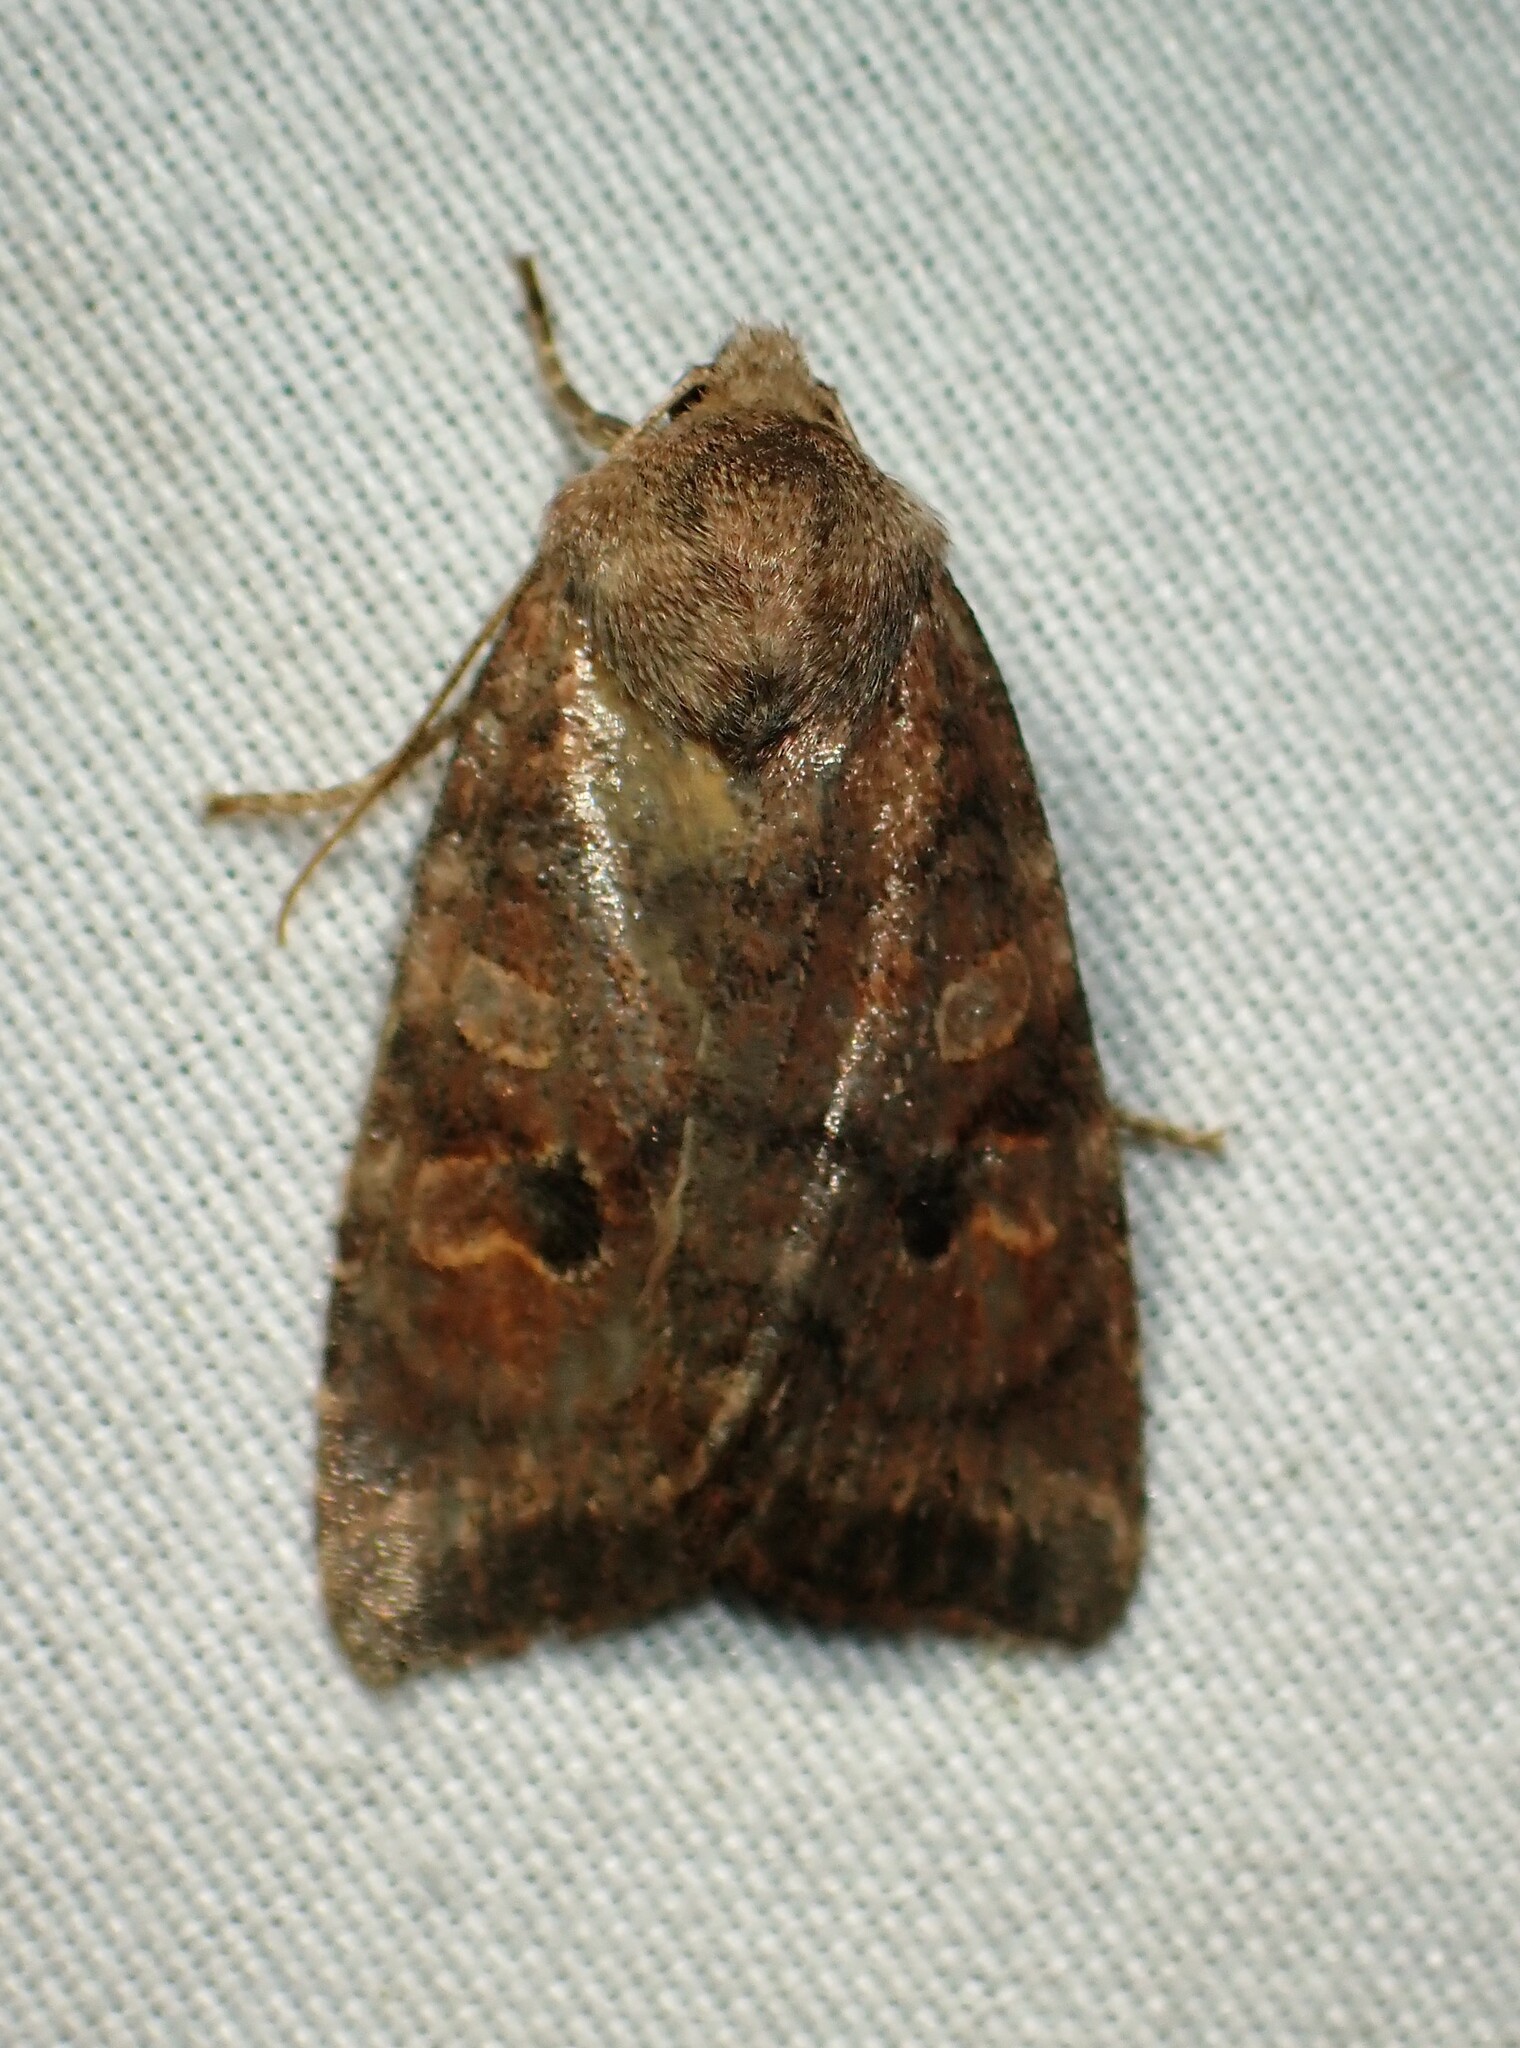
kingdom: Animalia
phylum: Arthropoda
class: Insecta
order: Lepidoptera
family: Noctuidae
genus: Anathix
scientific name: Anathix puta
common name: Puta sallow
